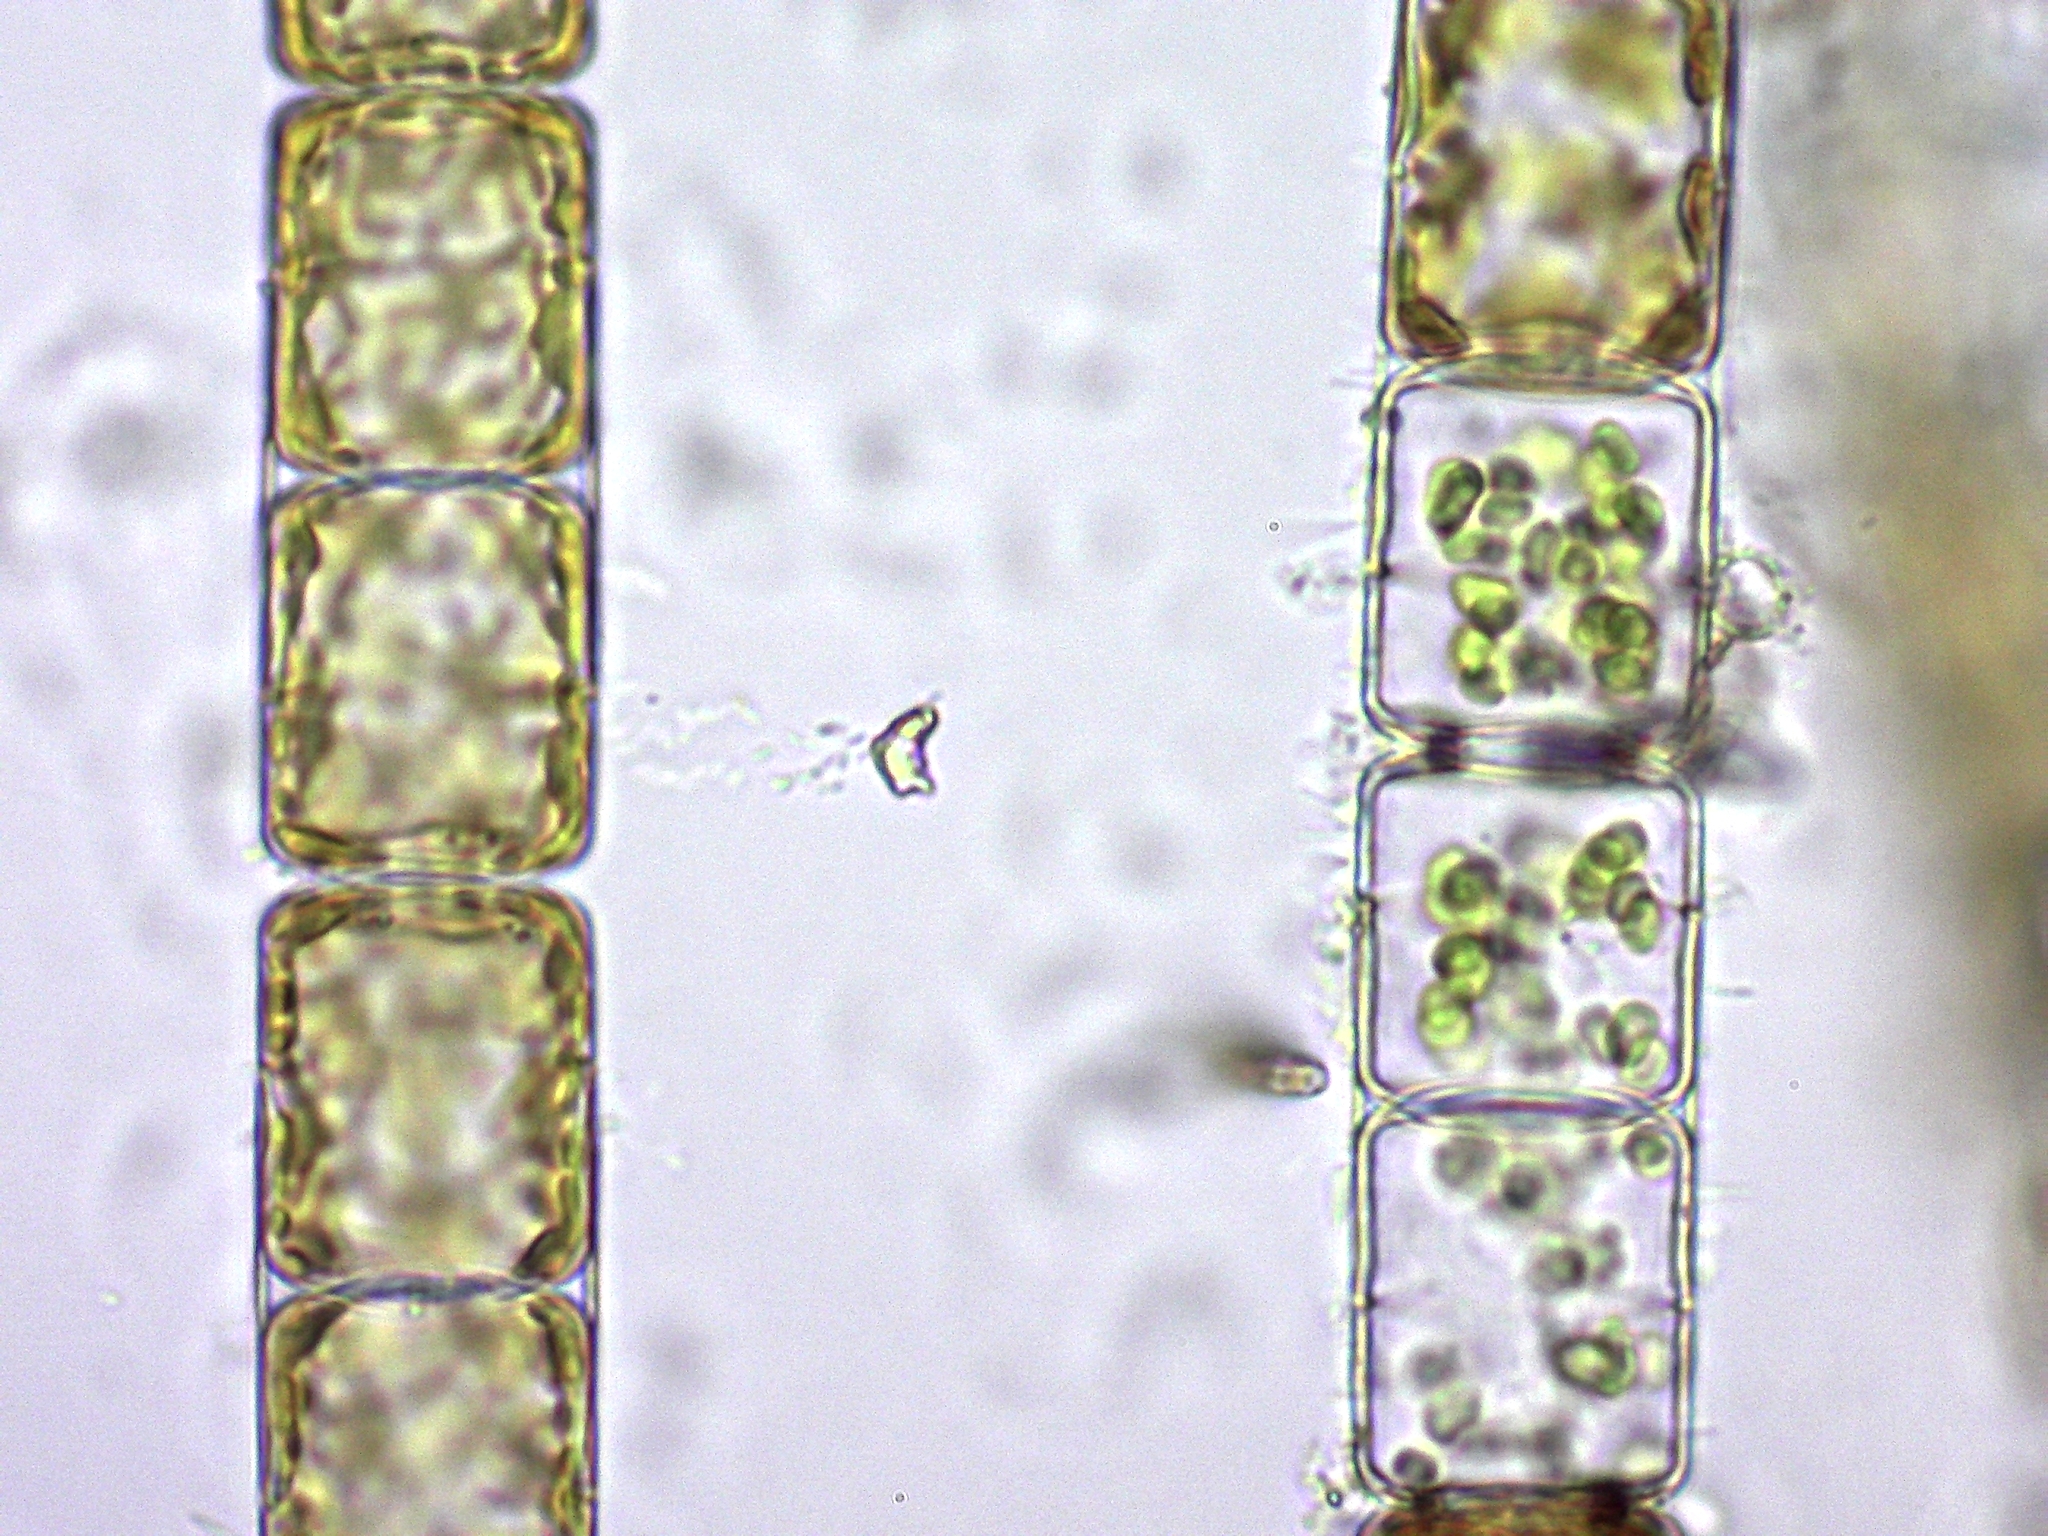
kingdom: Chromista
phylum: Ochrophyta
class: Bacillariophyceae
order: Melosirales
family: Melosiraceae
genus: Melosira
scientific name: Melosira varians
